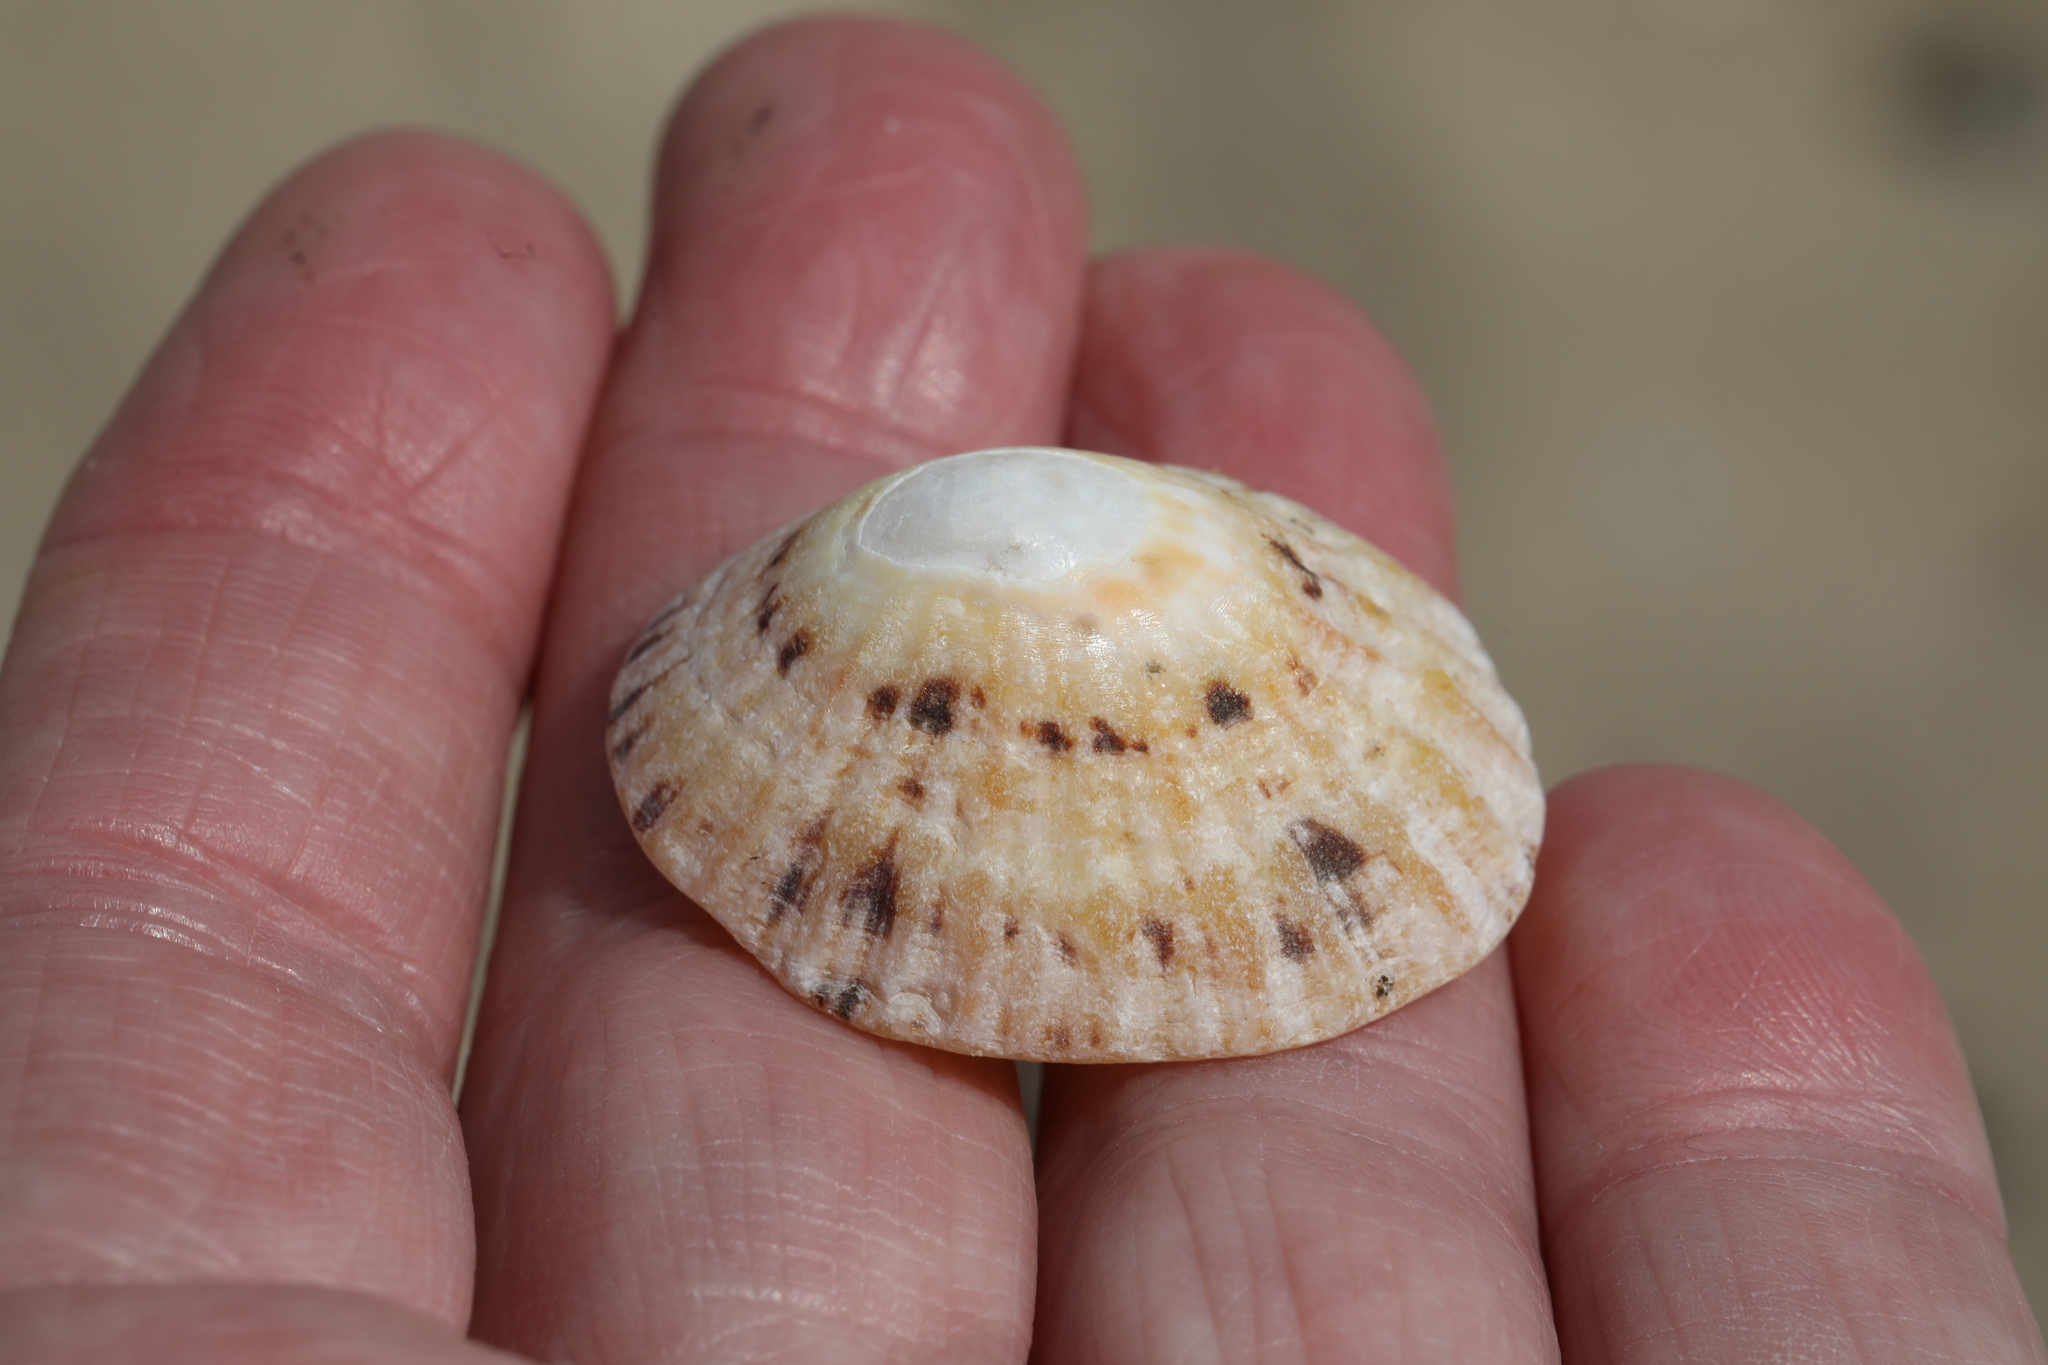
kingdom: Animalia
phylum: Mollusca
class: Gastropoda
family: Patellidae
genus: Patella
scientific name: Patella vulgata
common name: Common limpet
